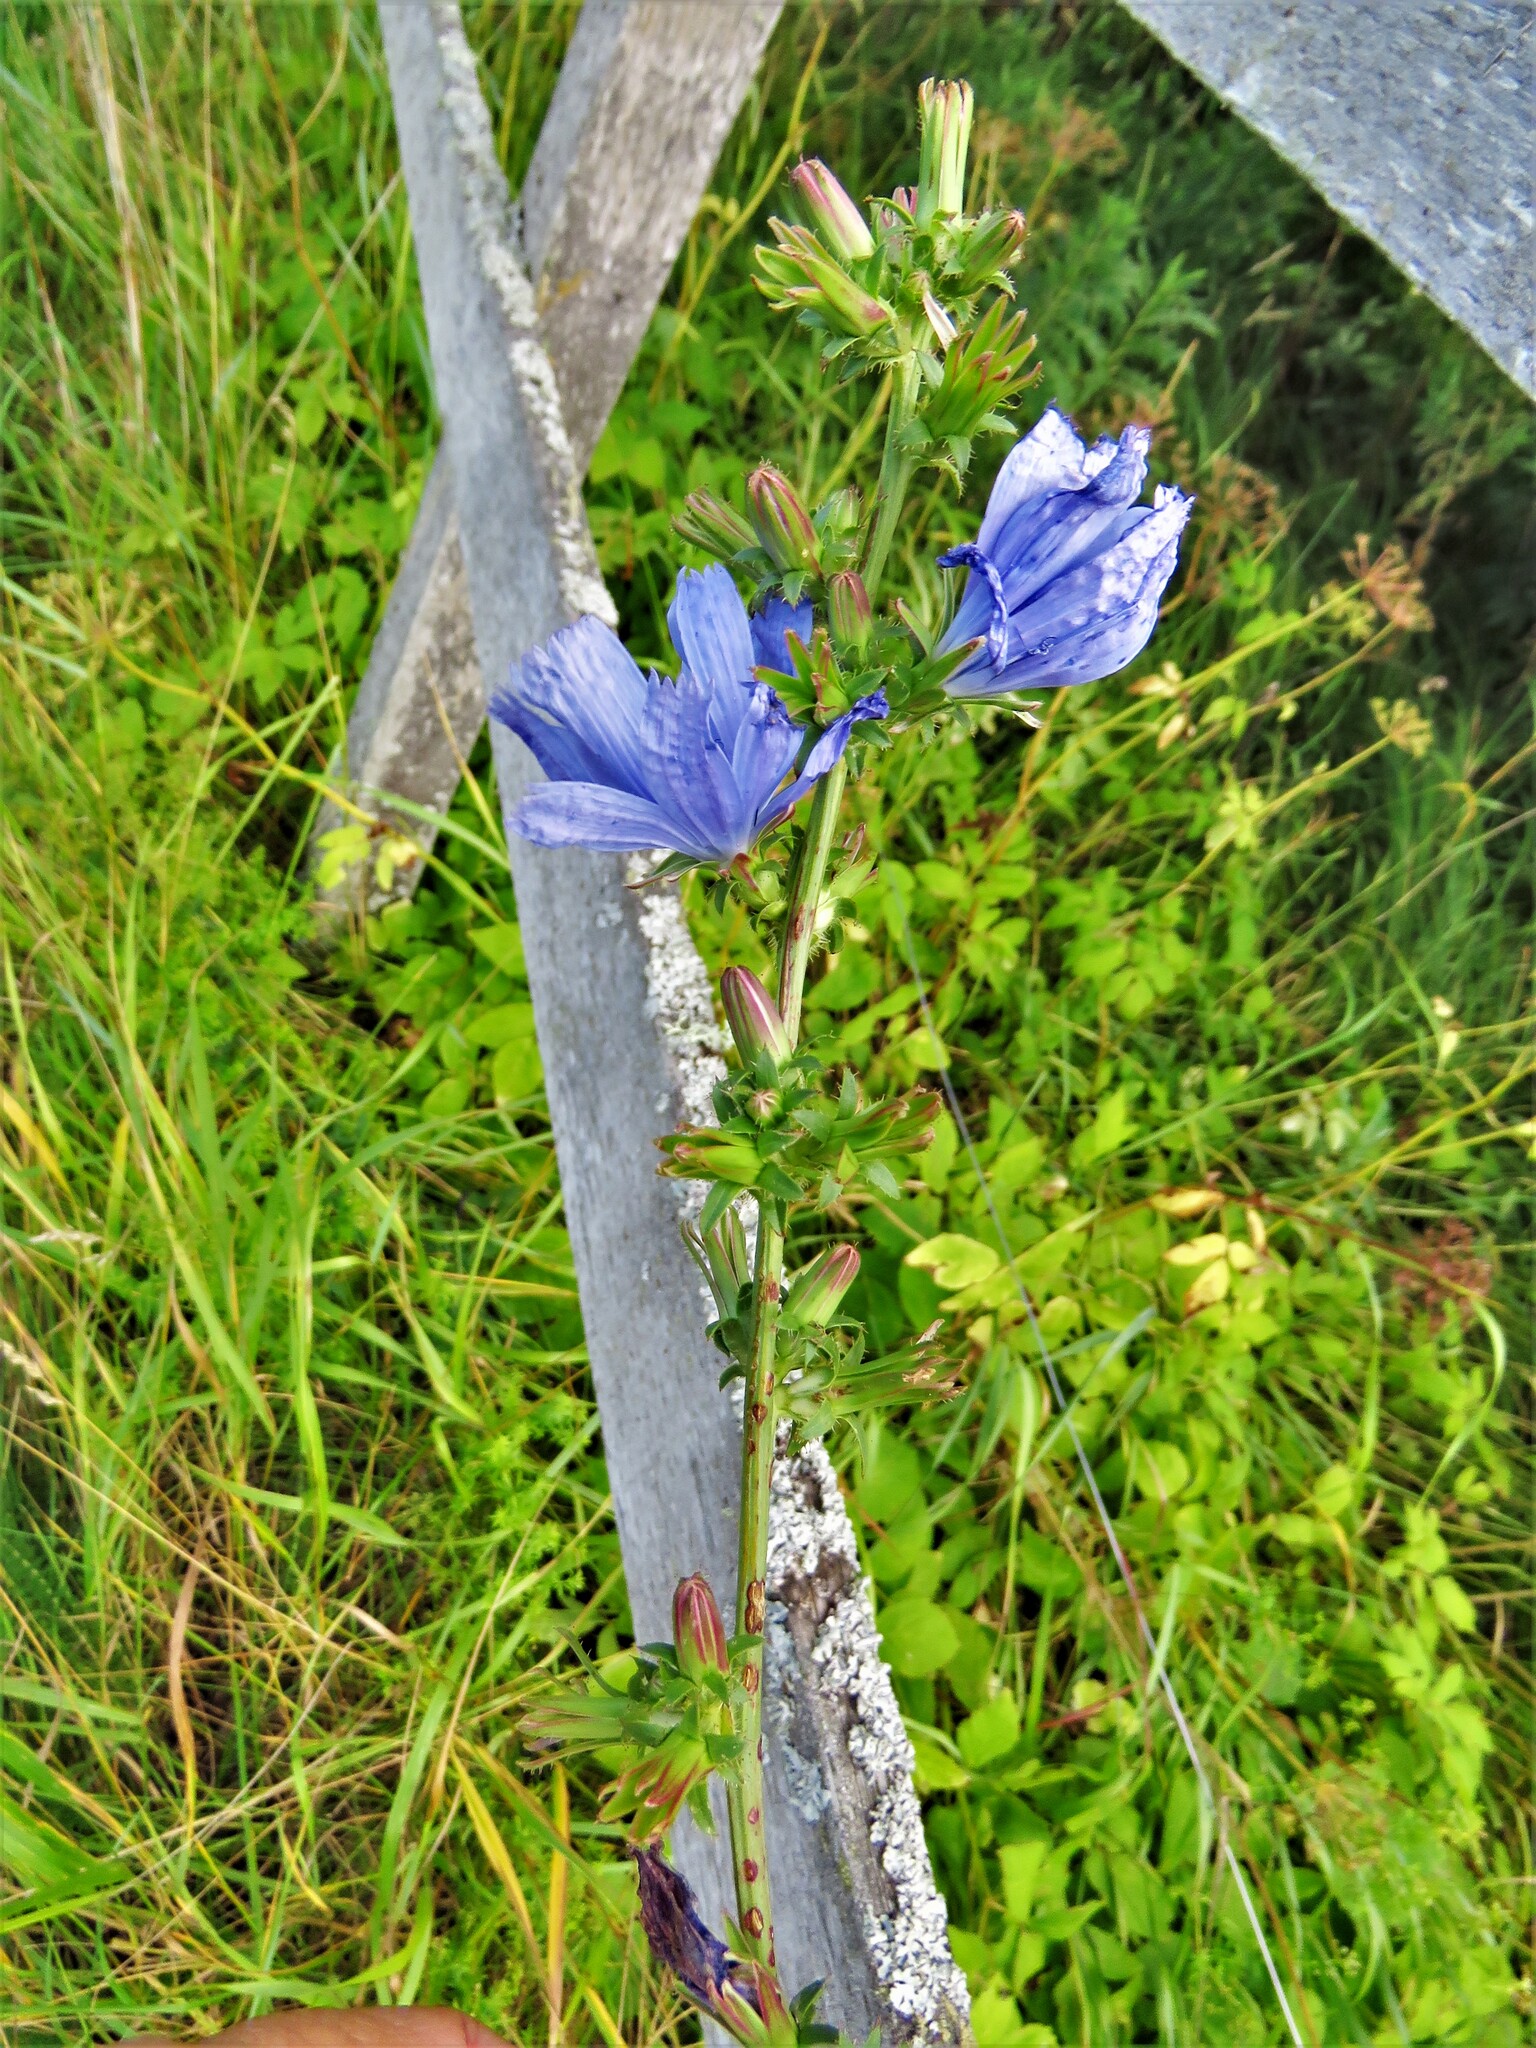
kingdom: Plantae
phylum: Tracheophyta
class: Magnoliopsida
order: Asterales
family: Asteraceae
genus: Cichorium
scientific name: Cichorium intybus
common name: Chicory
